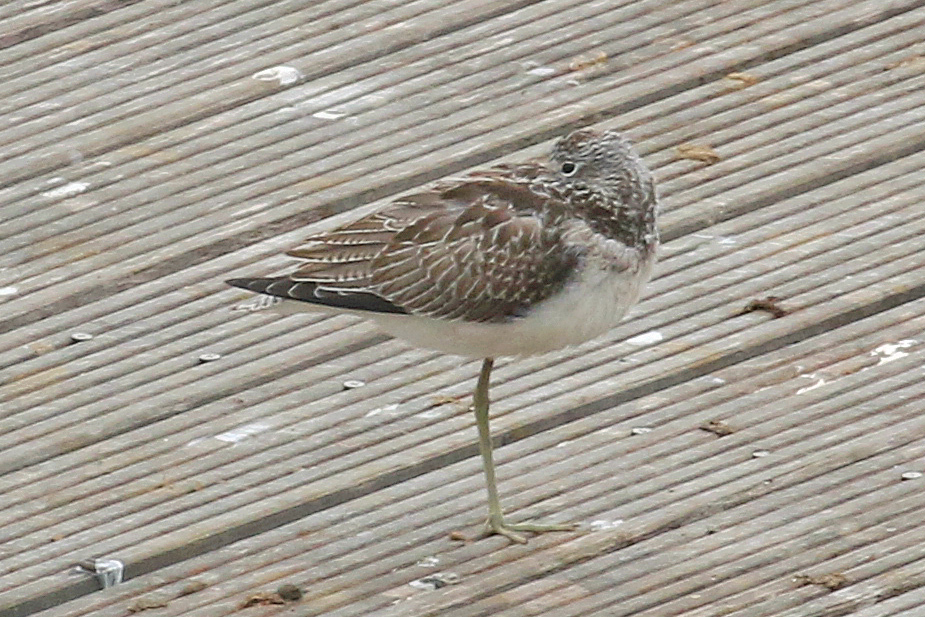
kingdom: Animalia
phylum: Chordata
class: Aves
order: Charadriiformes
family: Scolopacidae
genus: Tringa
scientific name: Tringa nebularia
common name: Common greenshank
